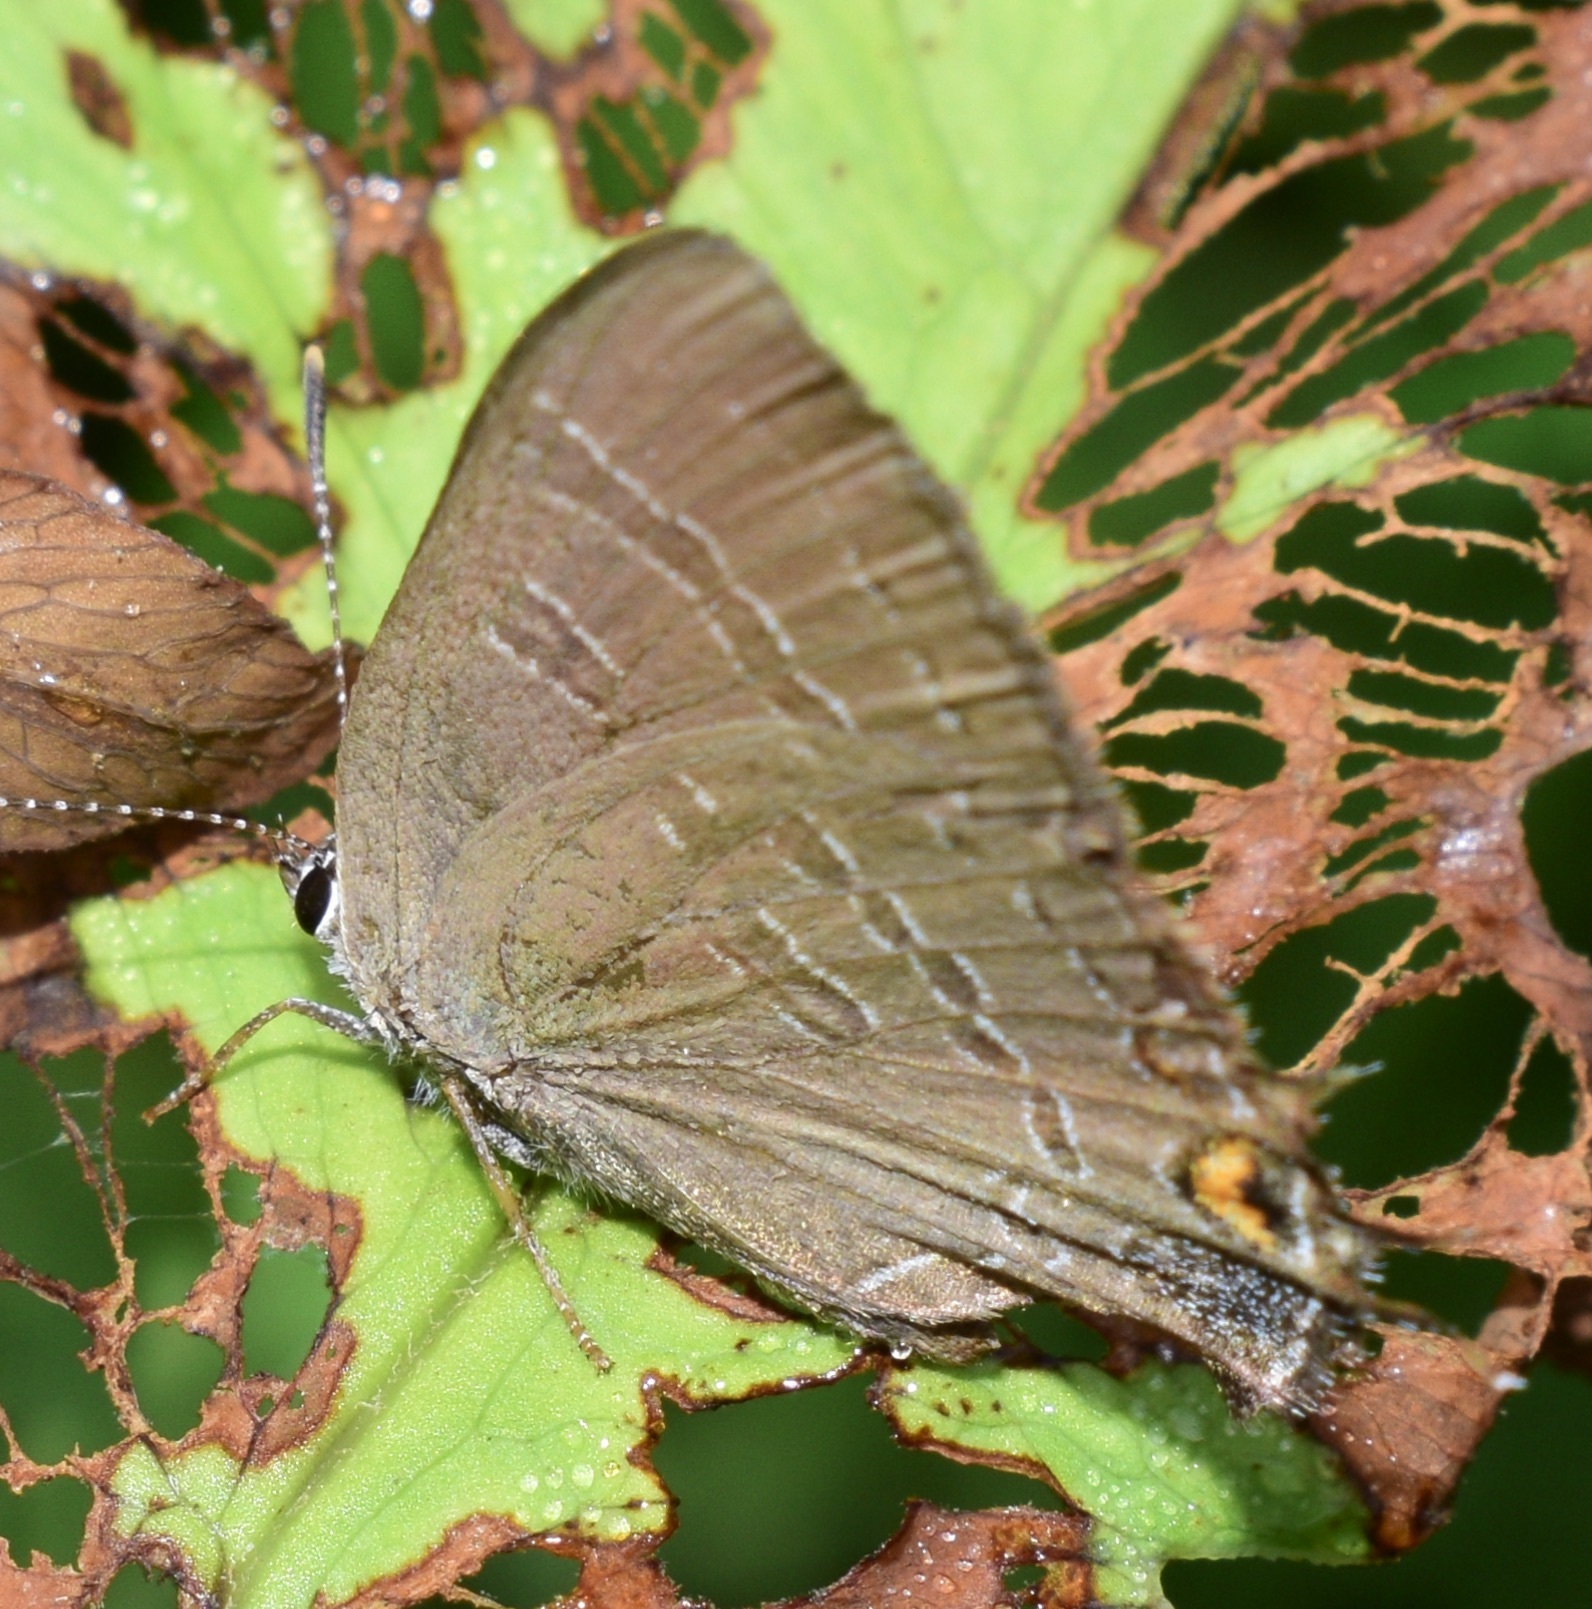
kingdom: Animalia
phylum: Arthropoda
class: Insecta
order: Lepidoptera
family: Lycaenidae
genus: Satyrium
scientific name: Satyrium calanus
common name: Banded hairstreak
